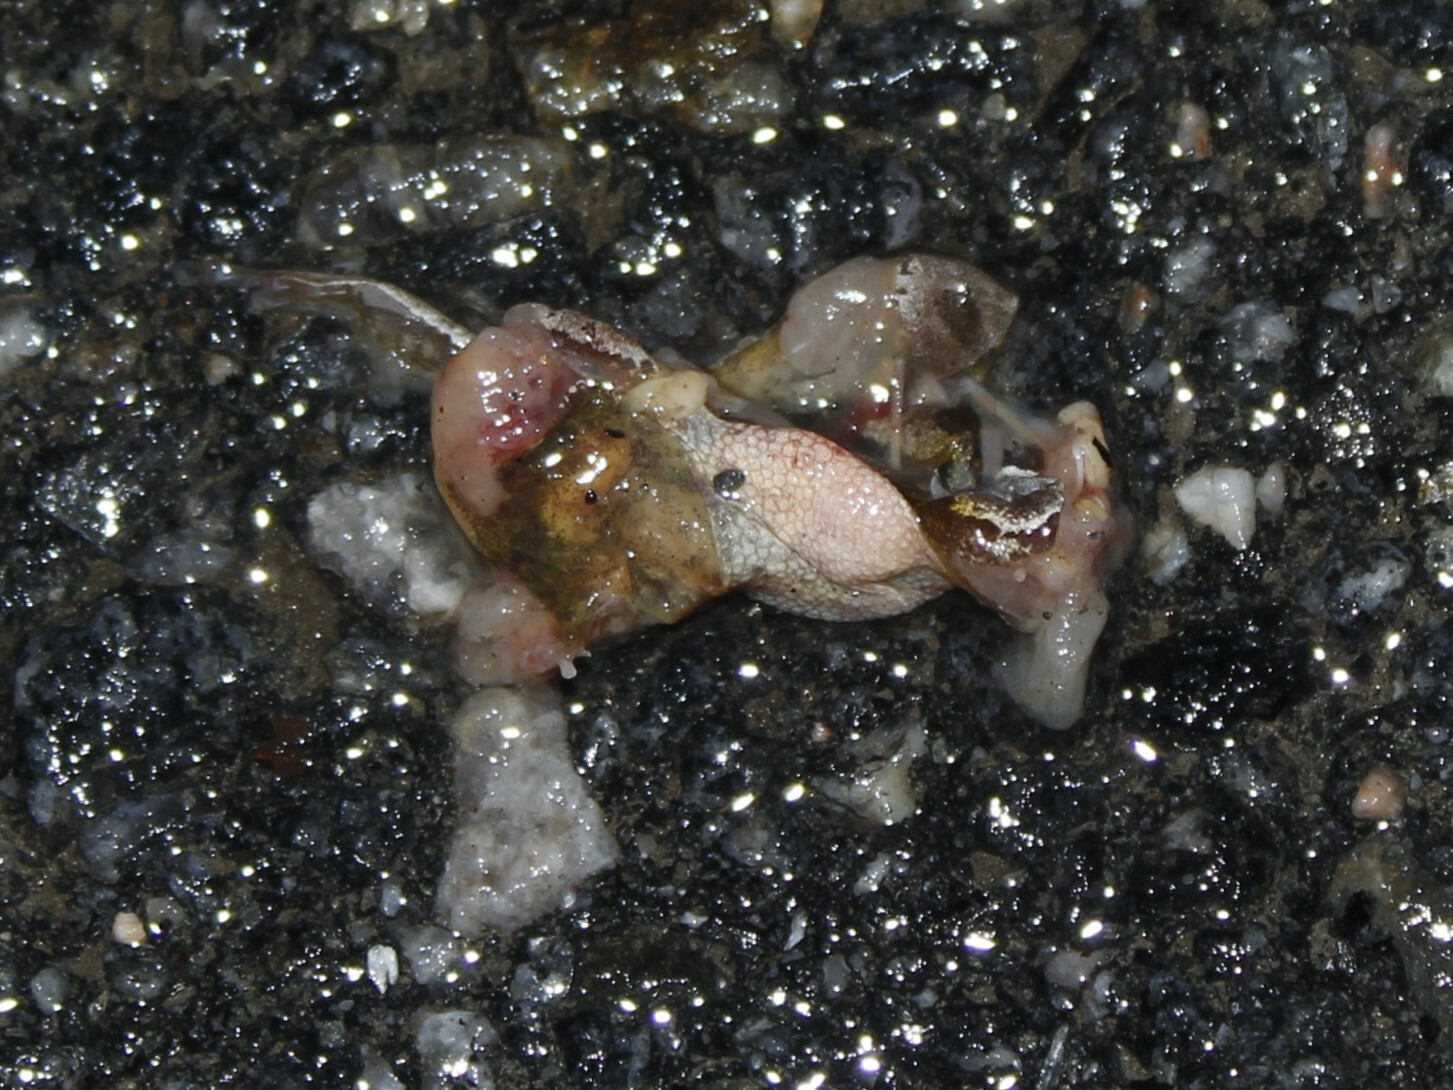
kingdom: Animalia
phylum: Chordata
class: Amphibia
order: Anura
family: Hylidae
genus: Pseudacris
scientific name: Pseudacris crucifer
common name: Spring peeper
